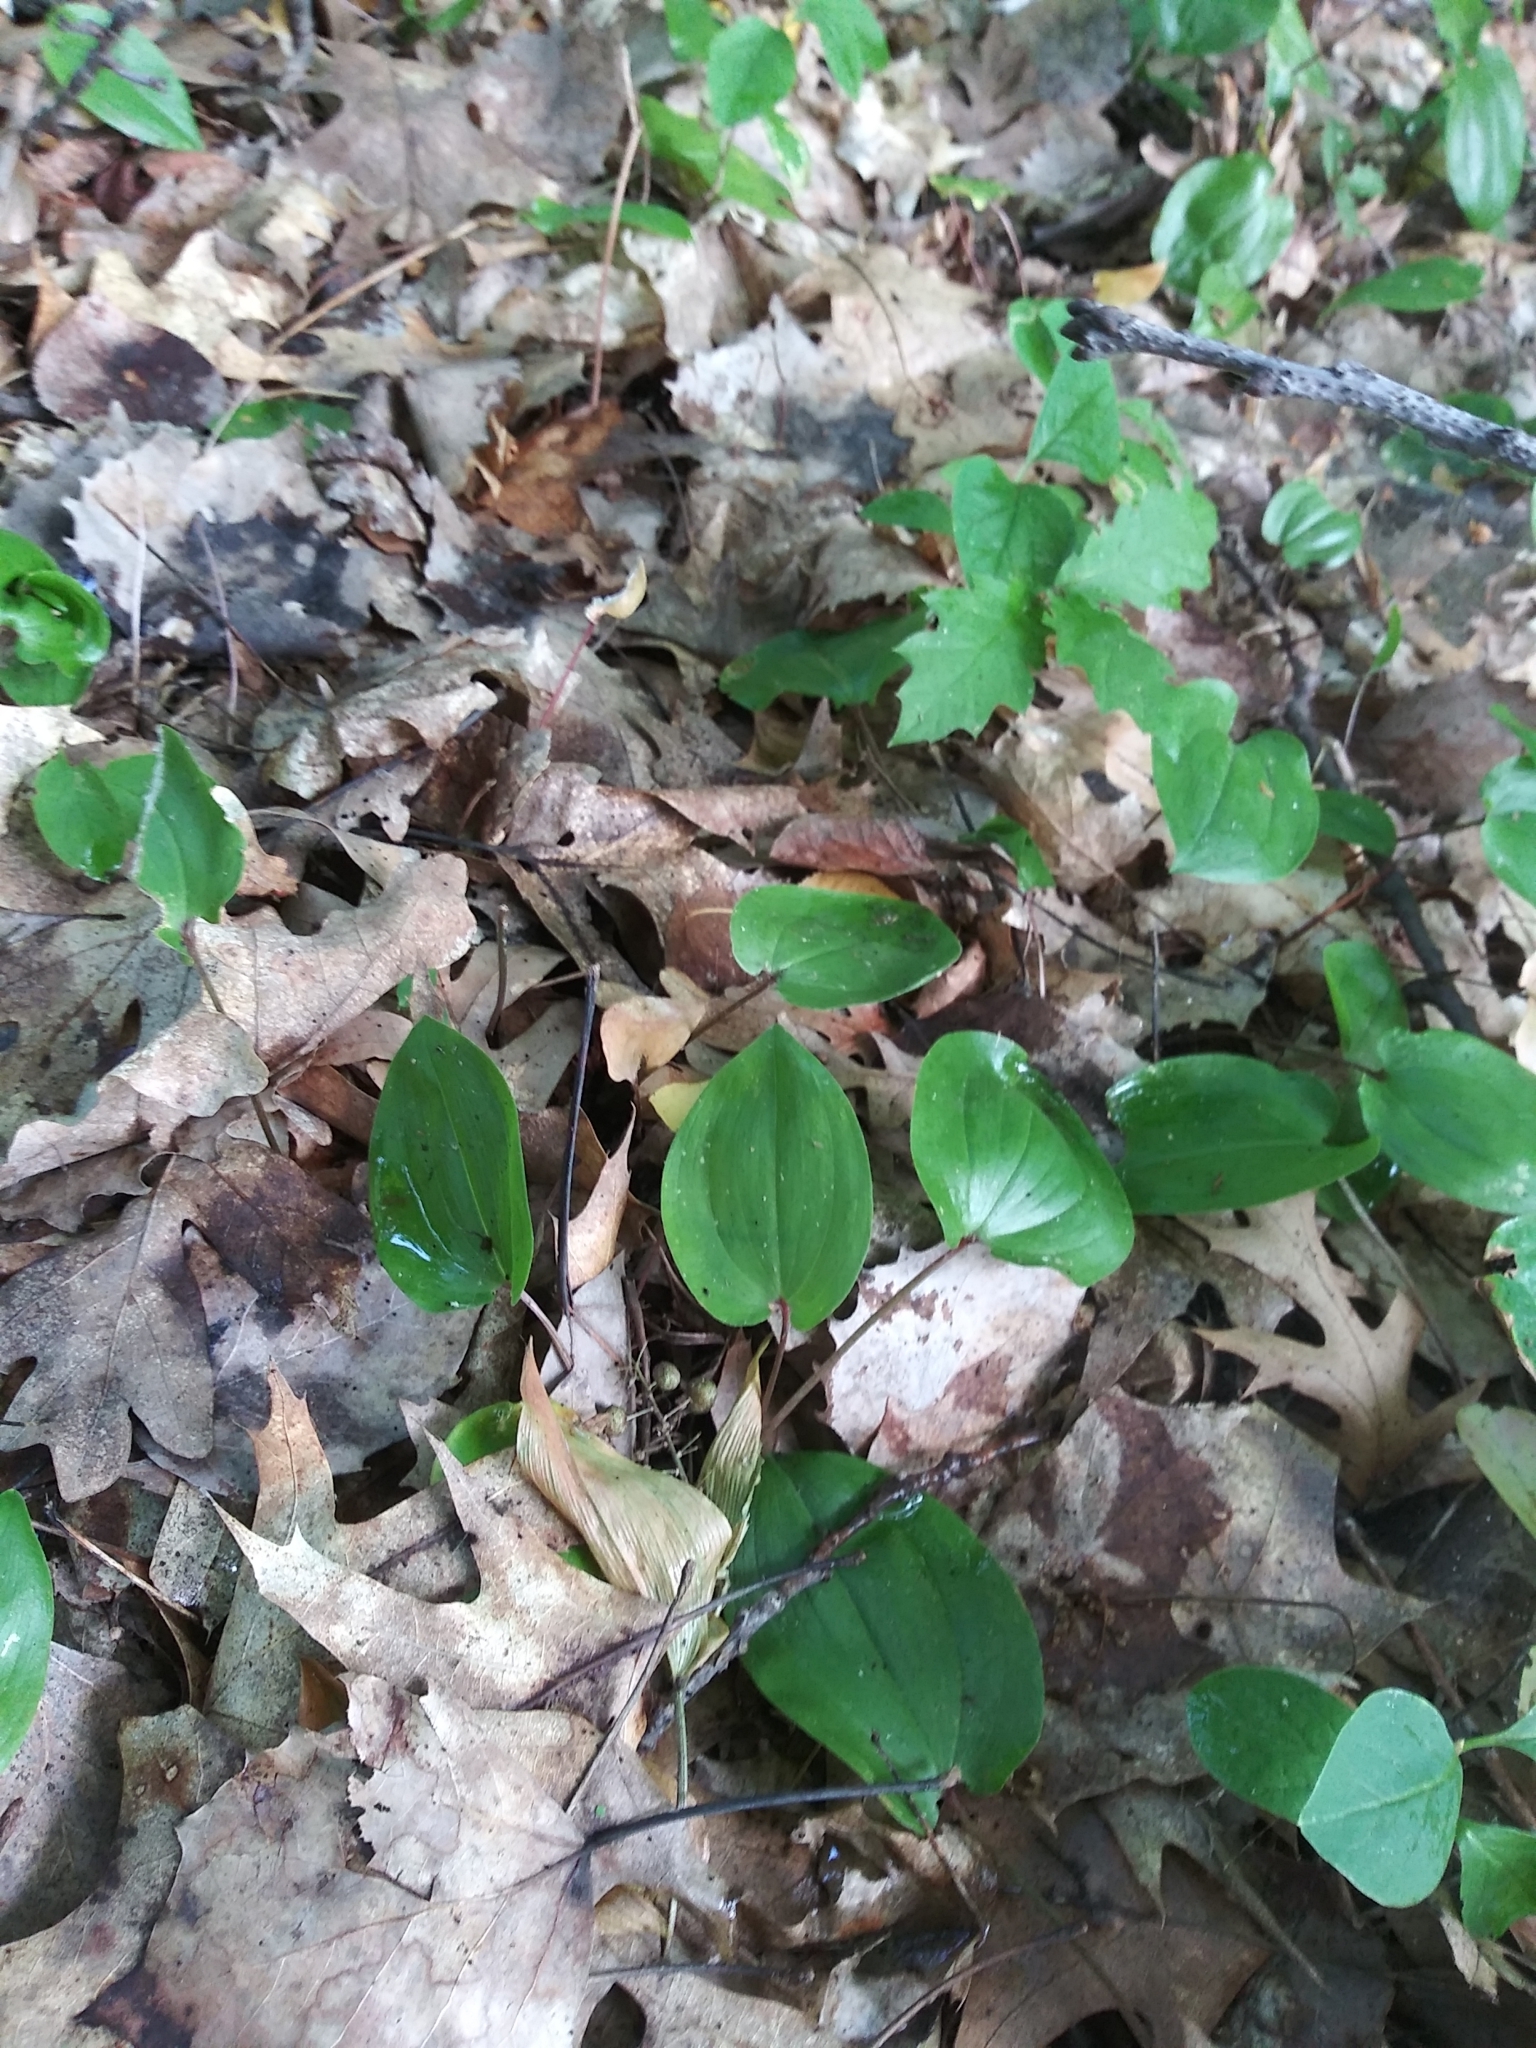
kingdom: Plantae
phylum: Tracheophyta
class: Liliopsida
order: Asparagales
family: Asparagaceae
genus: Maianthemum
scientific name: Maianthemum canadense
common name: False lily-of-the-valley
